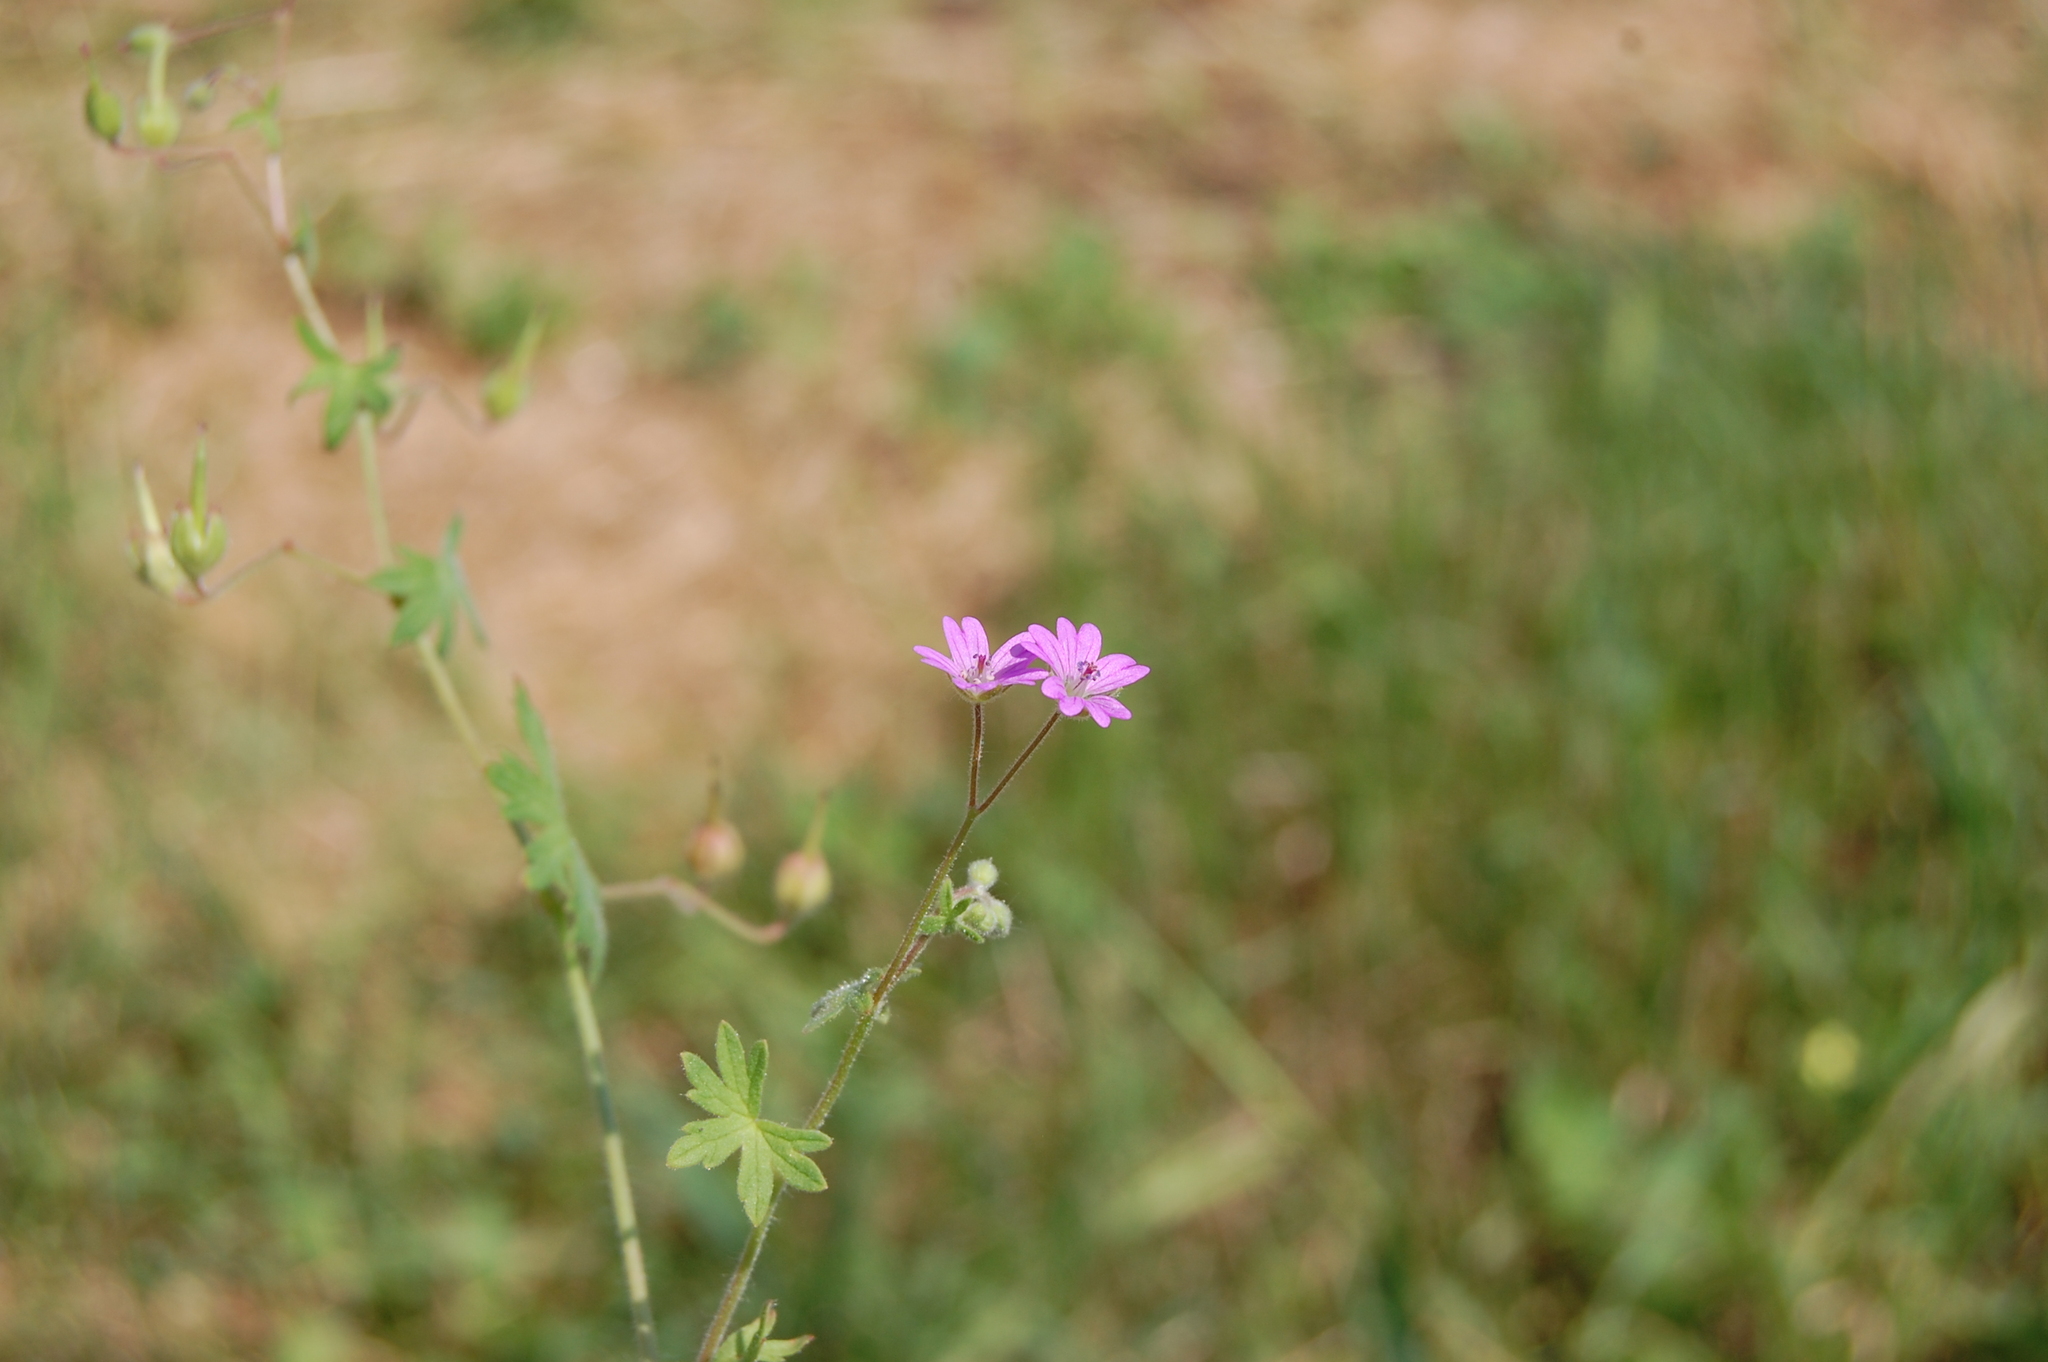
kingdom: Plantae
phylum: Tracheophyta
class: Magnoliopsida
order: Geraniales
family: Geraniaceae
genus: Geranium
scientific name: Geranium molle
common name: Dove's-foot crane's-bill
